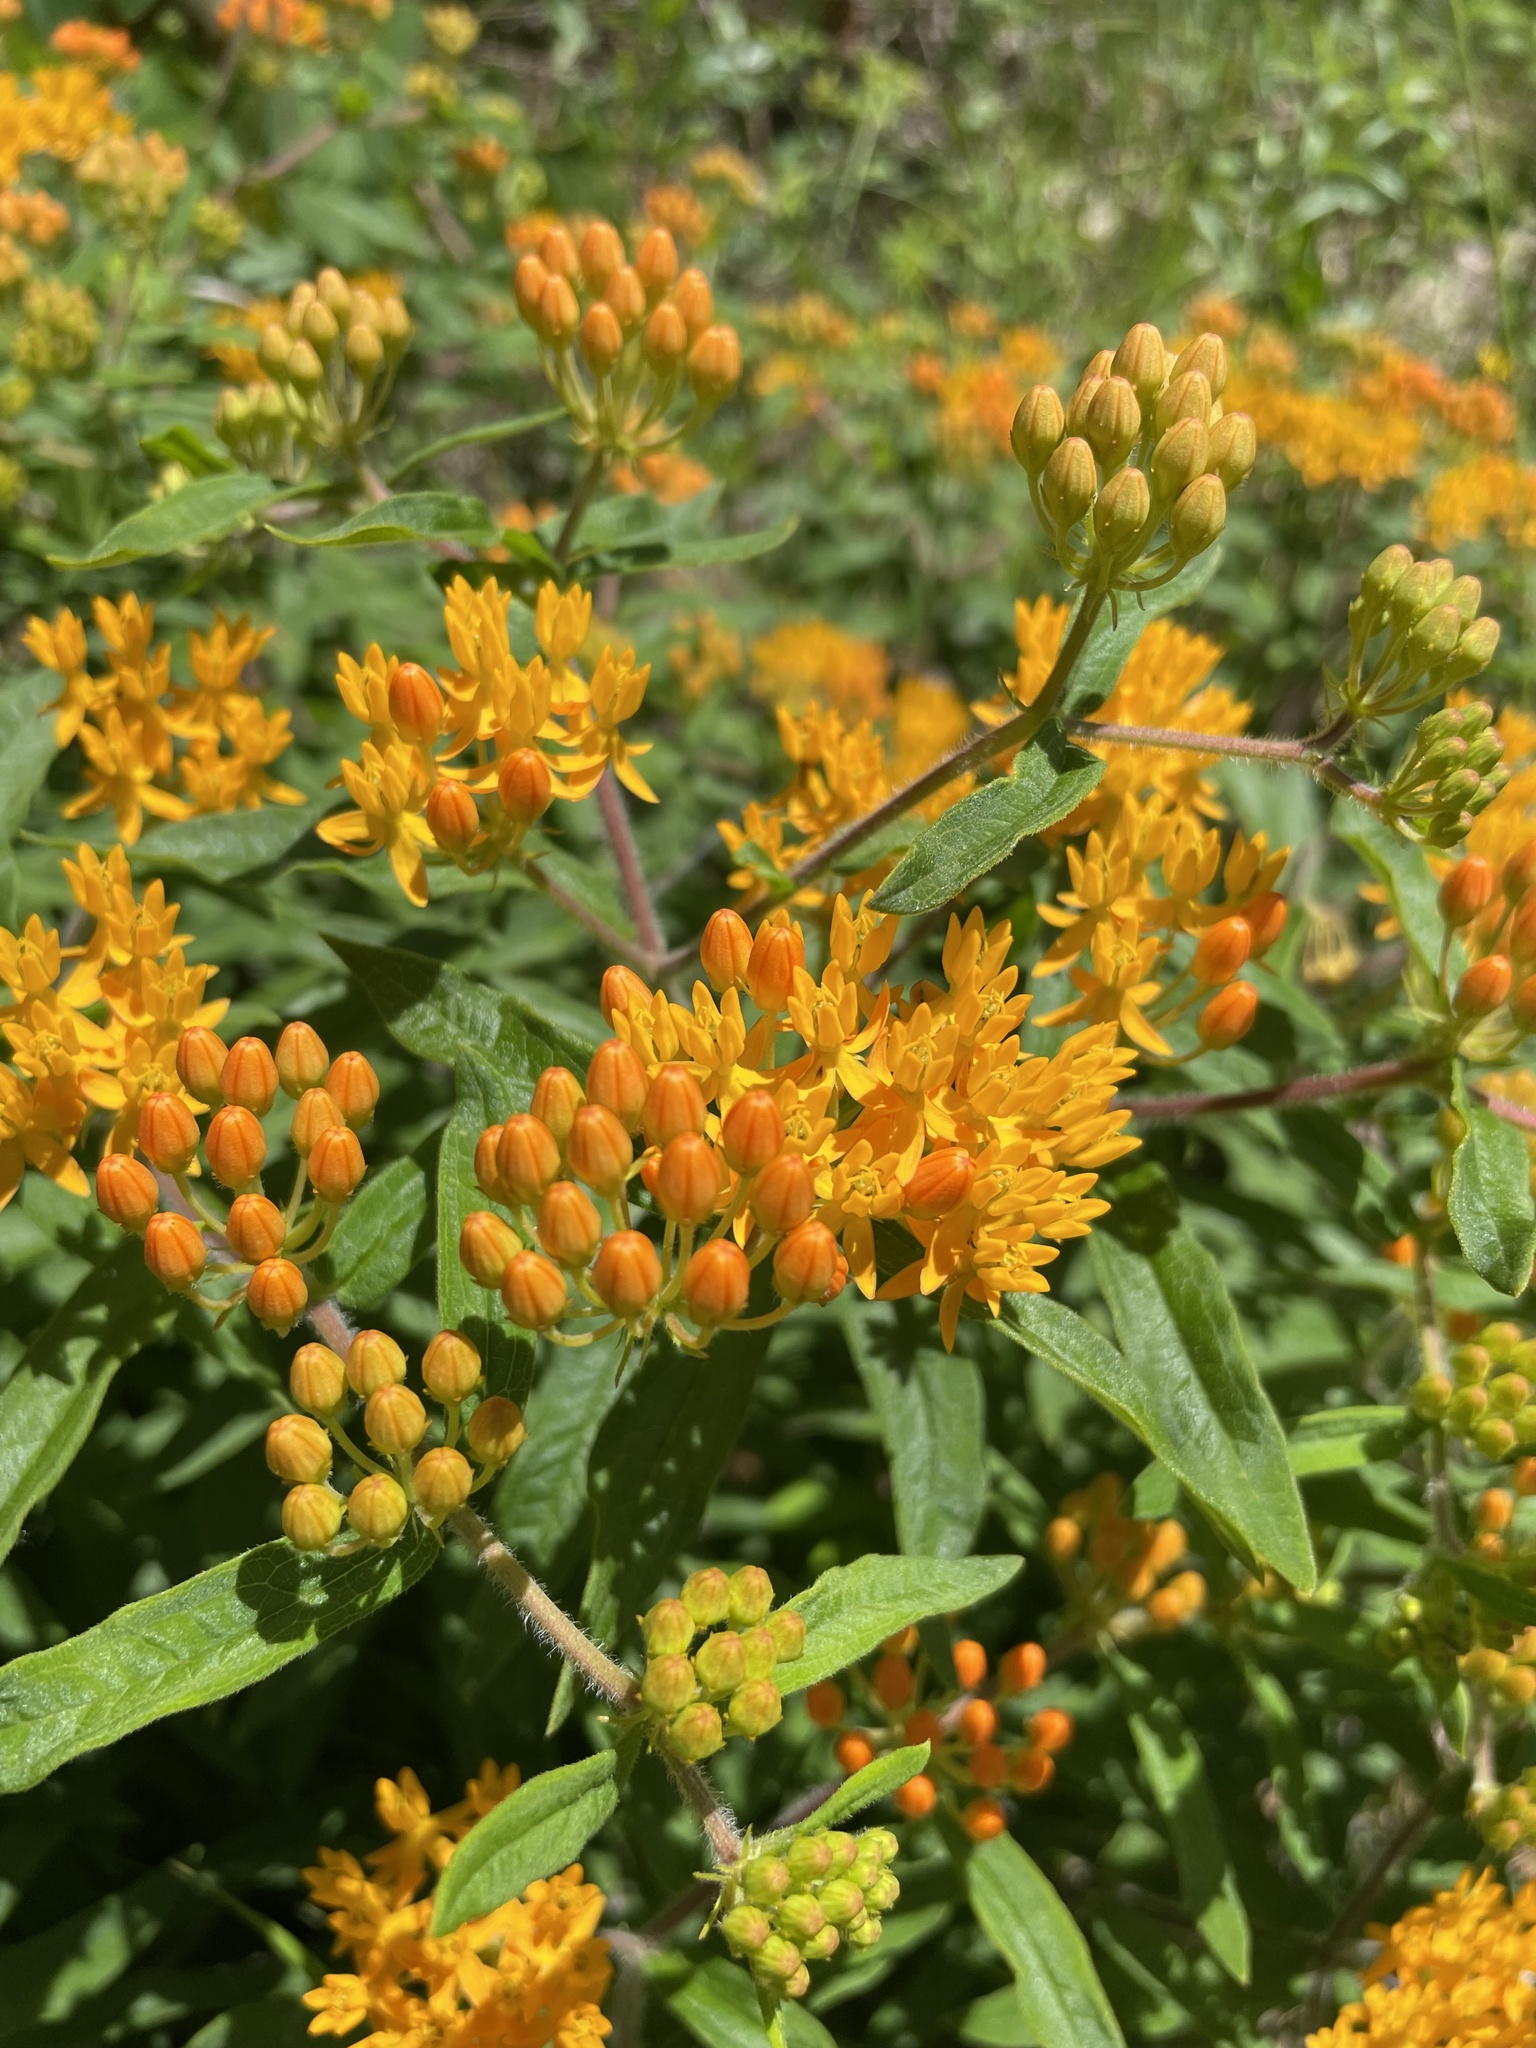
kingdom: Plantae
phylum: Tracheophyta
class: Magnoliopsida
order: Gentianales
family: Apocynaceae
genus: Asclepias
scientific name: Asclepias tuberosa
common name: Butterfly milkweed
